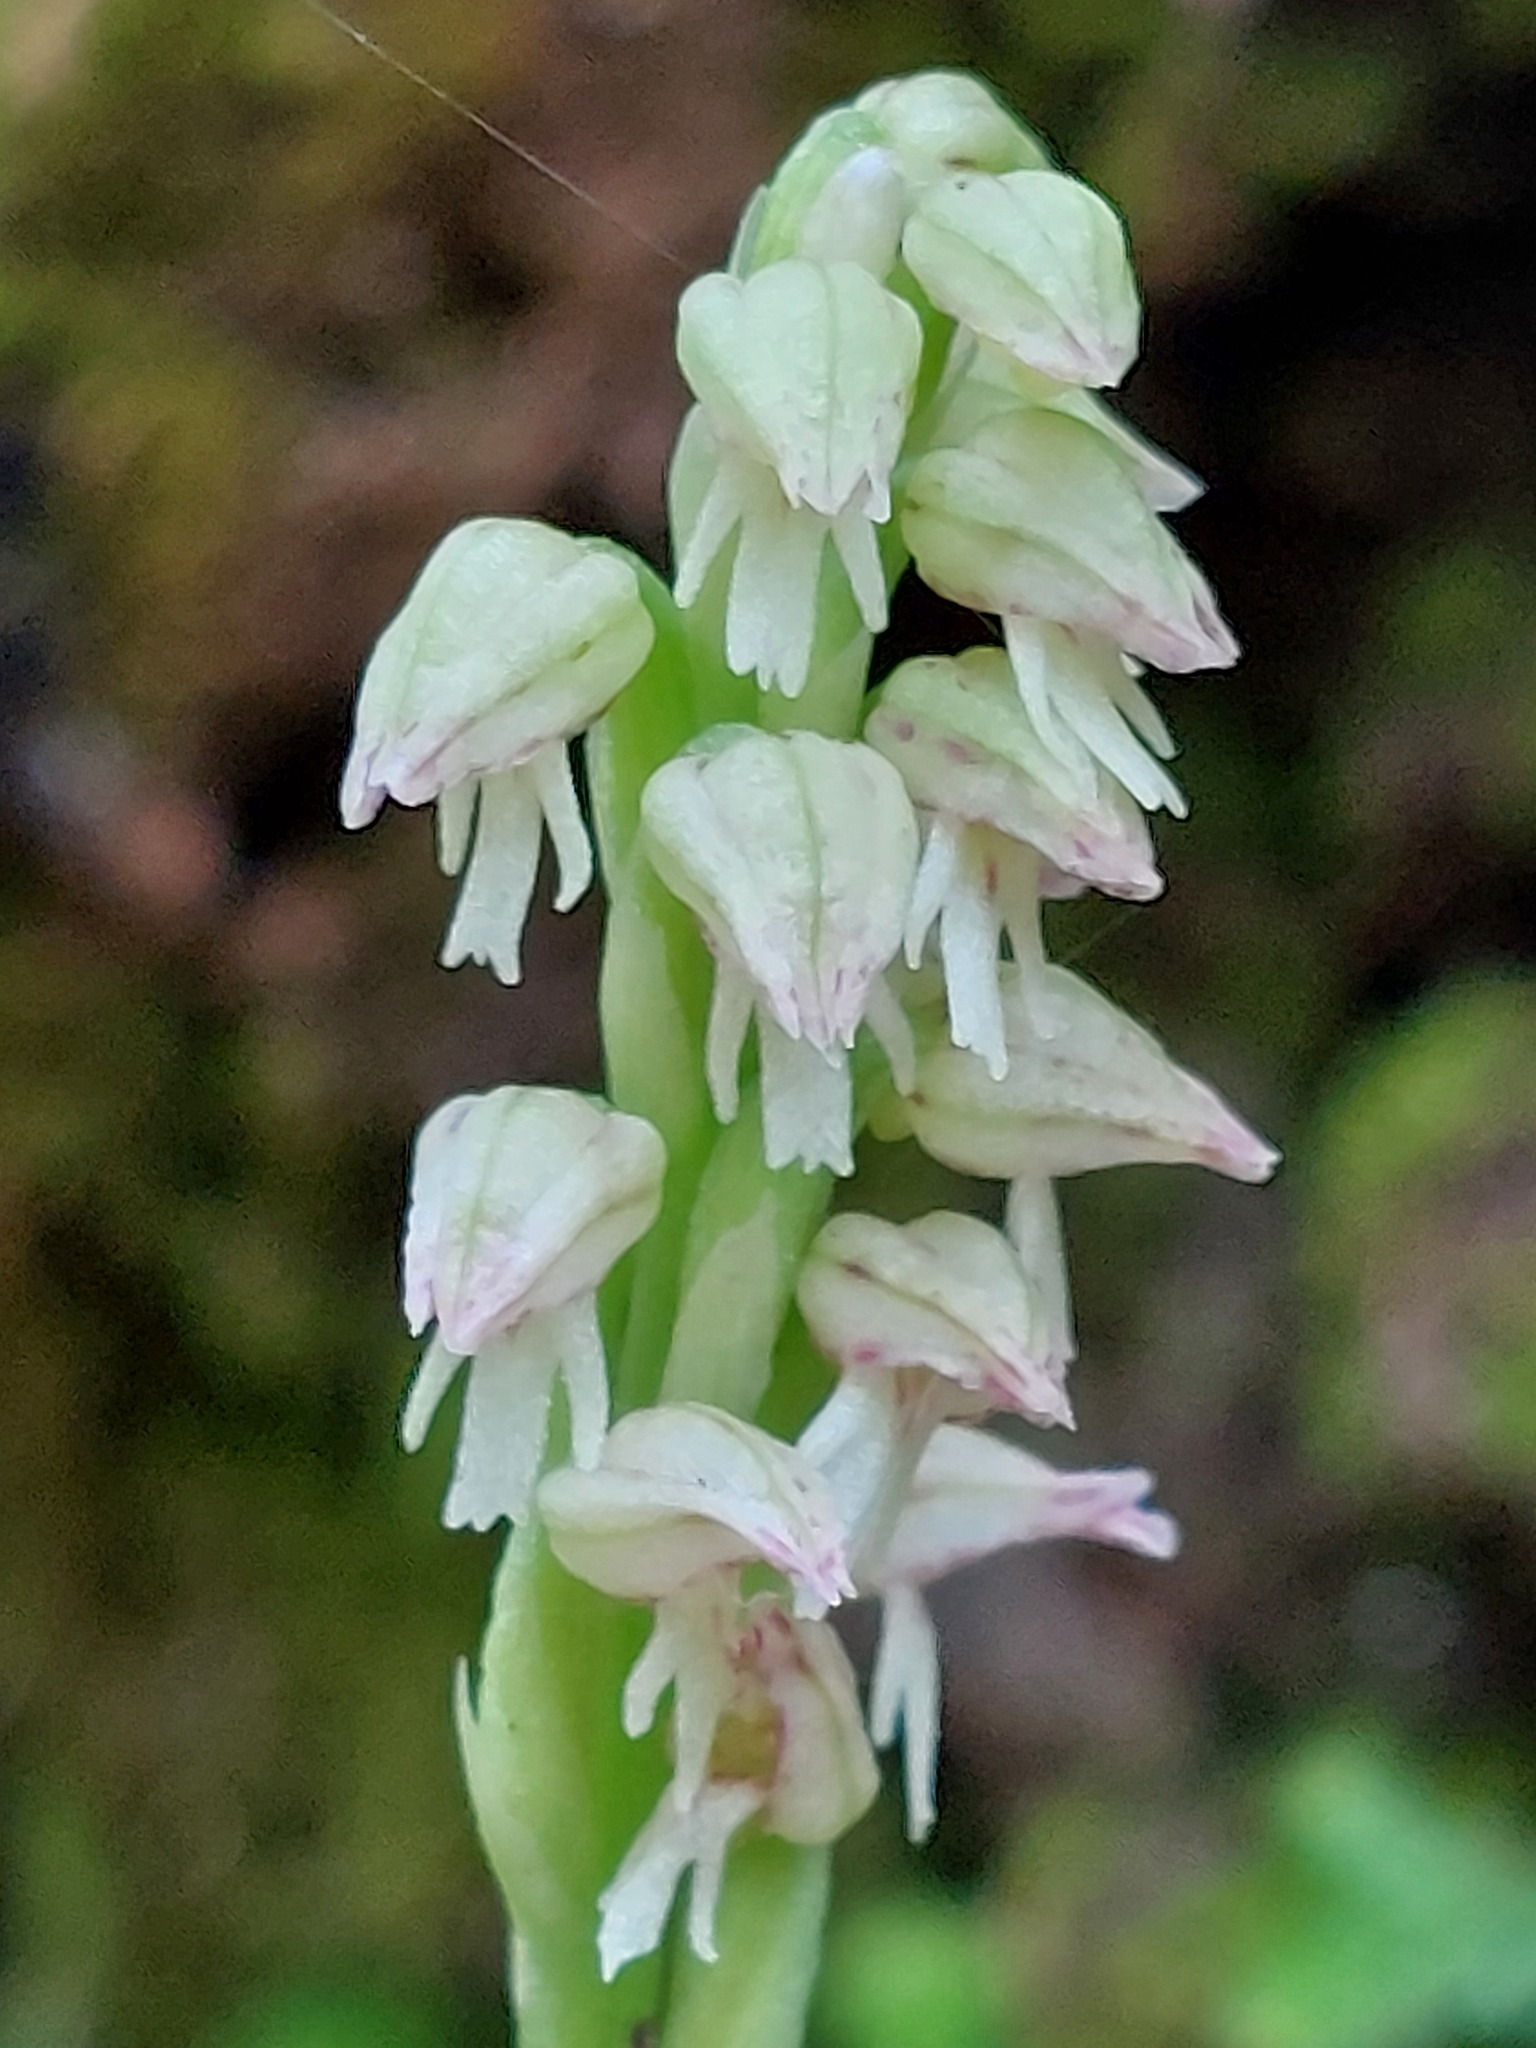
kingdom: Plantae
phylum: Tracheophyta
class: Liliopsida
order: Asparagales
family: Orchidaceae
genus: Neotinea
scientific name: Neotinea maculata
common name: Dense-flowered orchid
